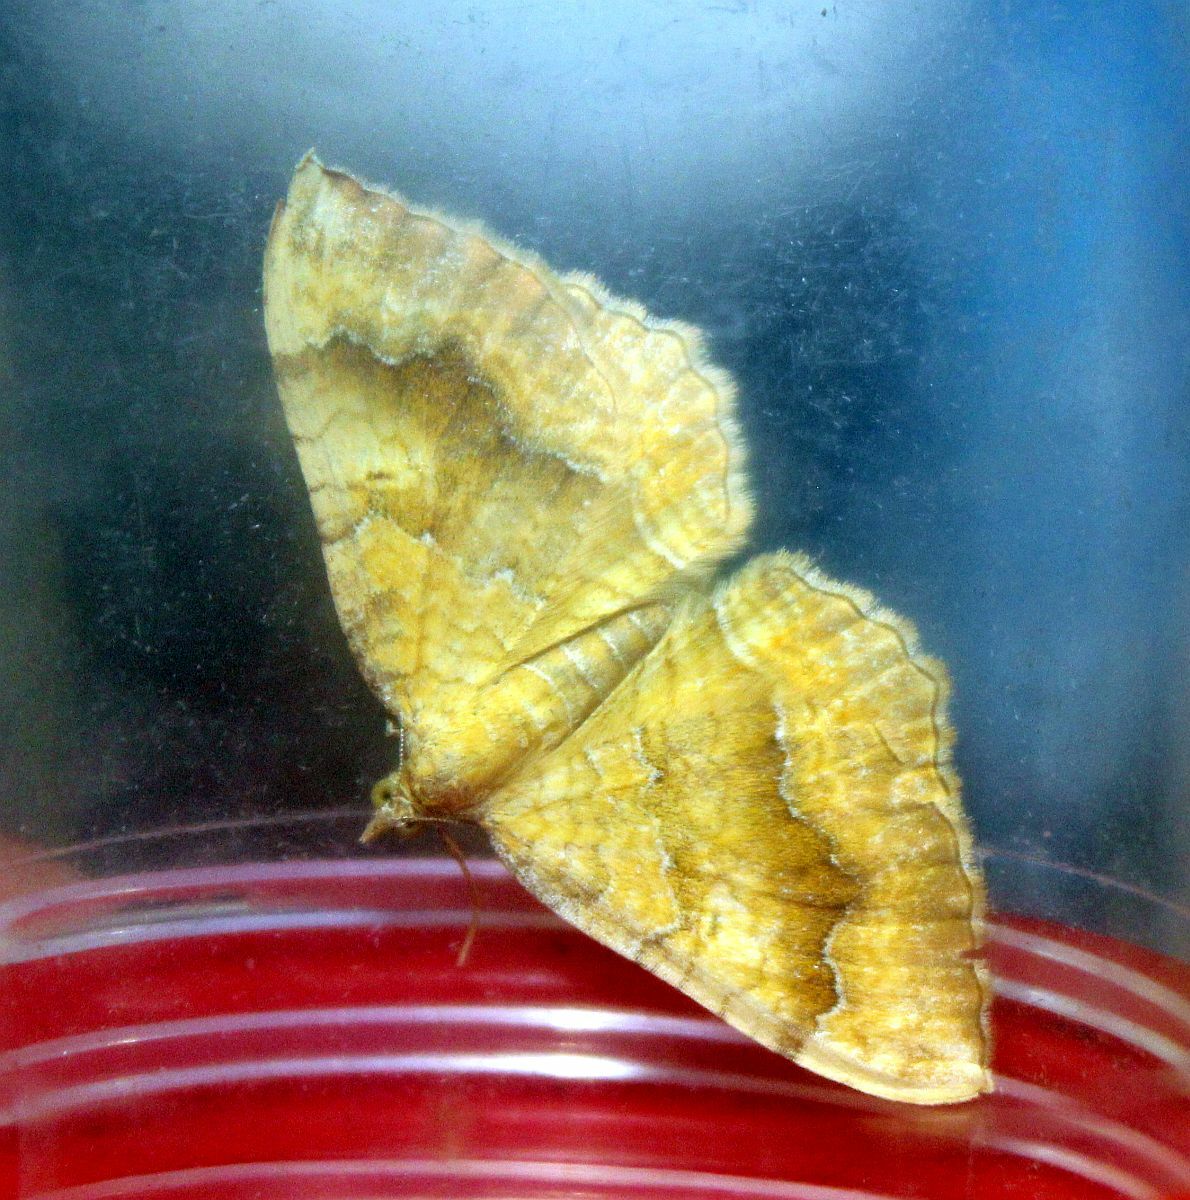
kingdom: Animalia
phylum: Arthropoda
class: Insecta
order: Lepidoptera
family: Geometridae
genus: Camptogramma
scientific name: Camptogramma bilineata
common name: Yellow shell
